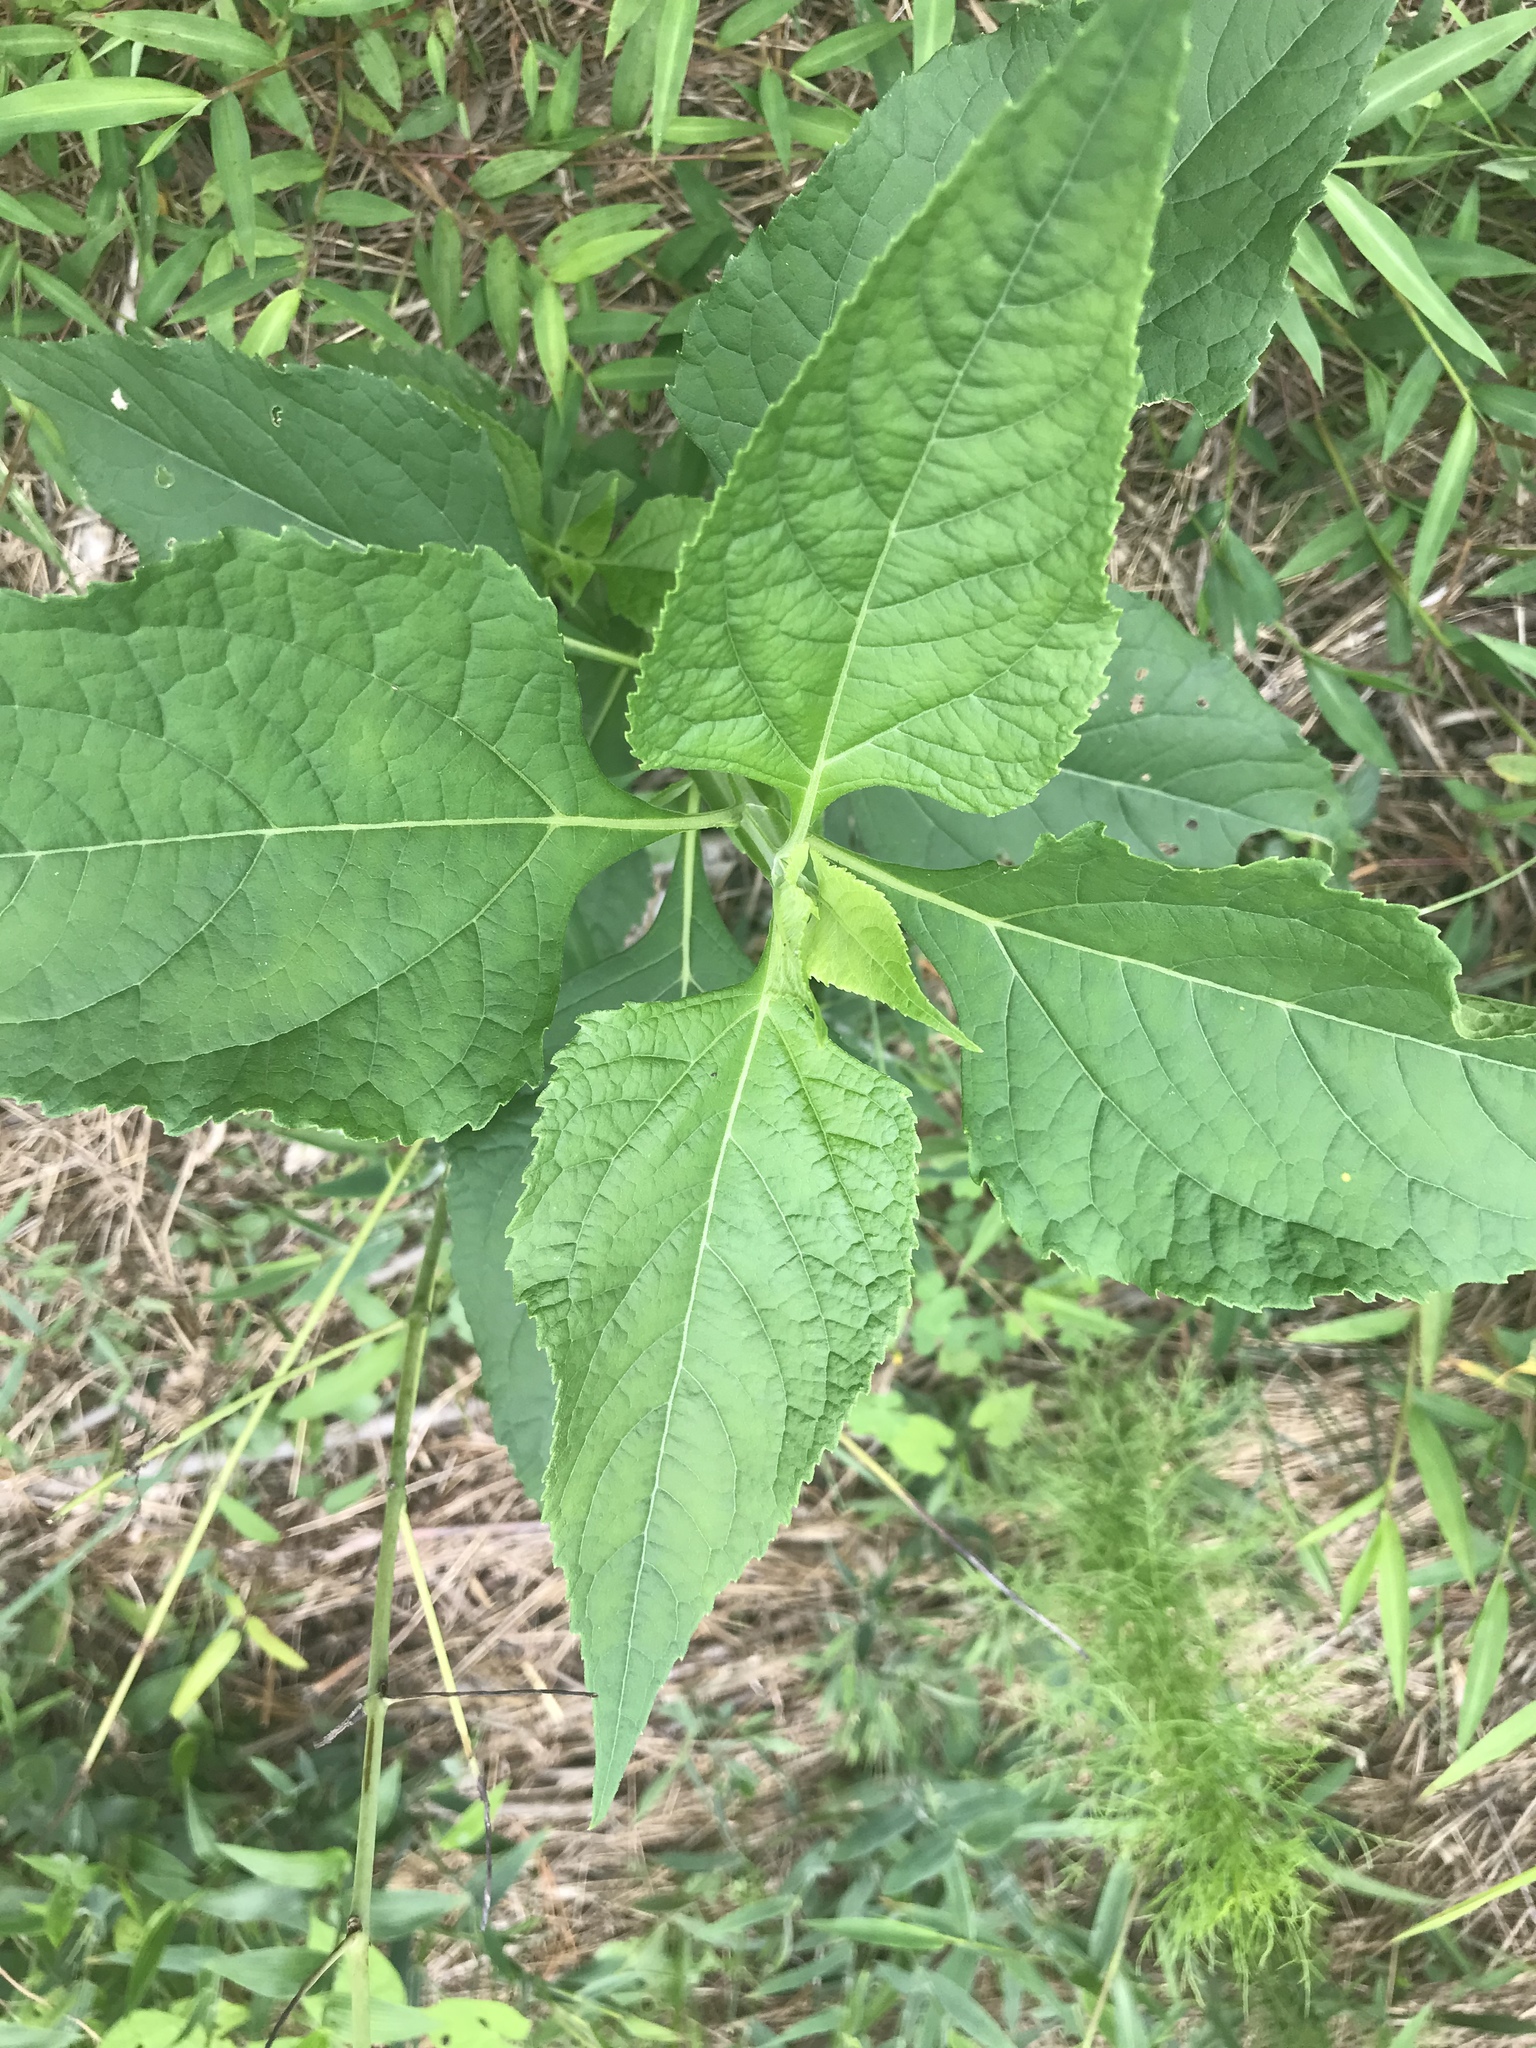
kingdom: Plantae
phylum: Tracheophyta
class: Magnoliopsida
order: Asterales
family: Asteraceae
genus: Verbesina
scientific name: Verbesina occidentalis
